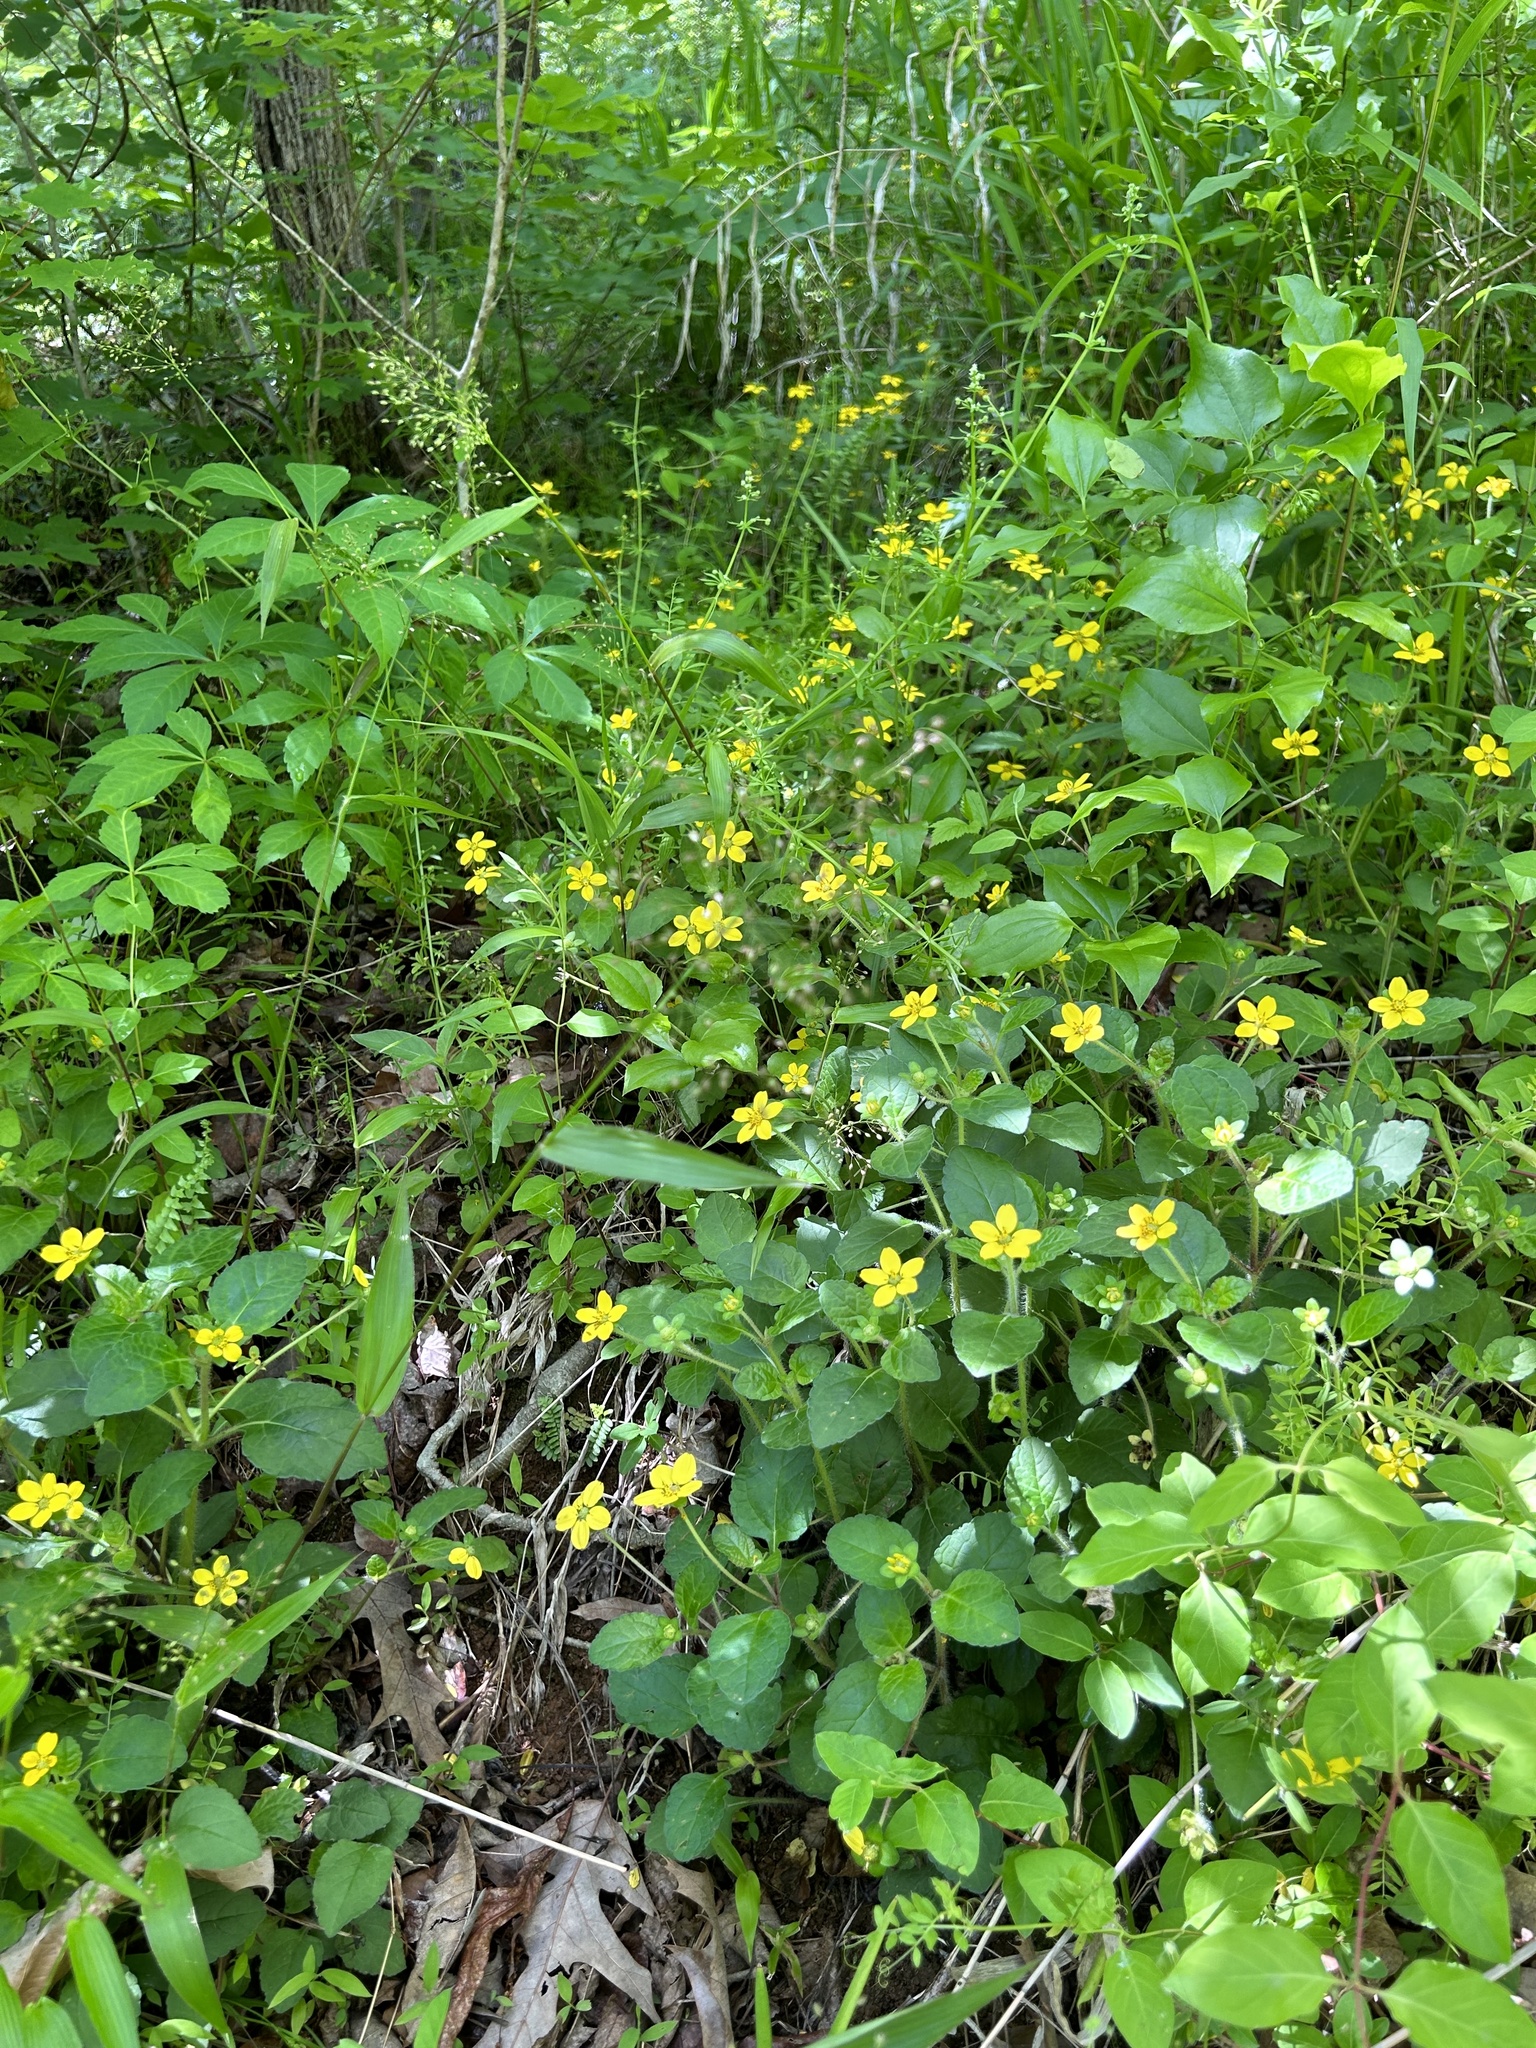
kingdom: Plantae
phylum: Tracheophyta
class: Magnoliopsida
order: Asterales
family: Asteraceae
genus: Chrysogonum
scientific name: Chrysogonum virginianum
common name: Golden-knee
